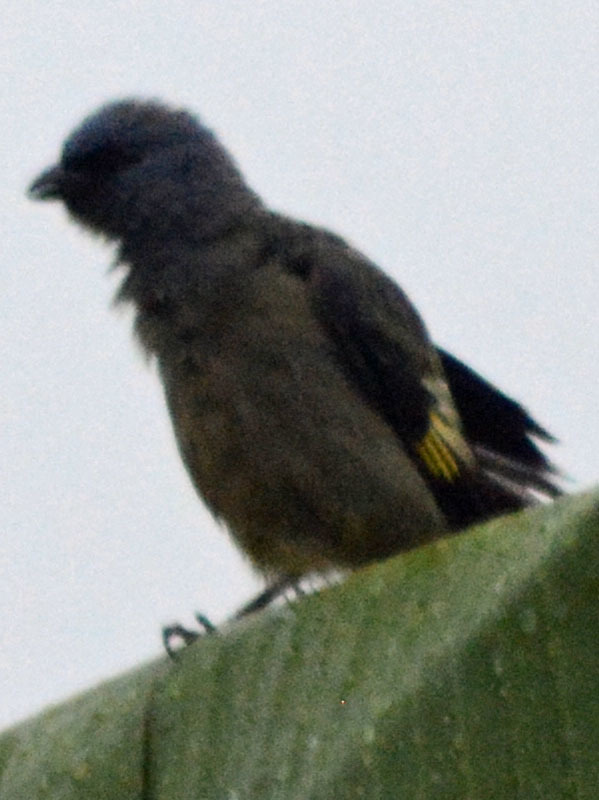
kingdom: Animalia
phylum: Chordata
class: Aves
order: Passeriformes
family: Thraupidae
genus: Thraupis
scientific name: Thraupis abbas
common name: Yellow-winged tanager
